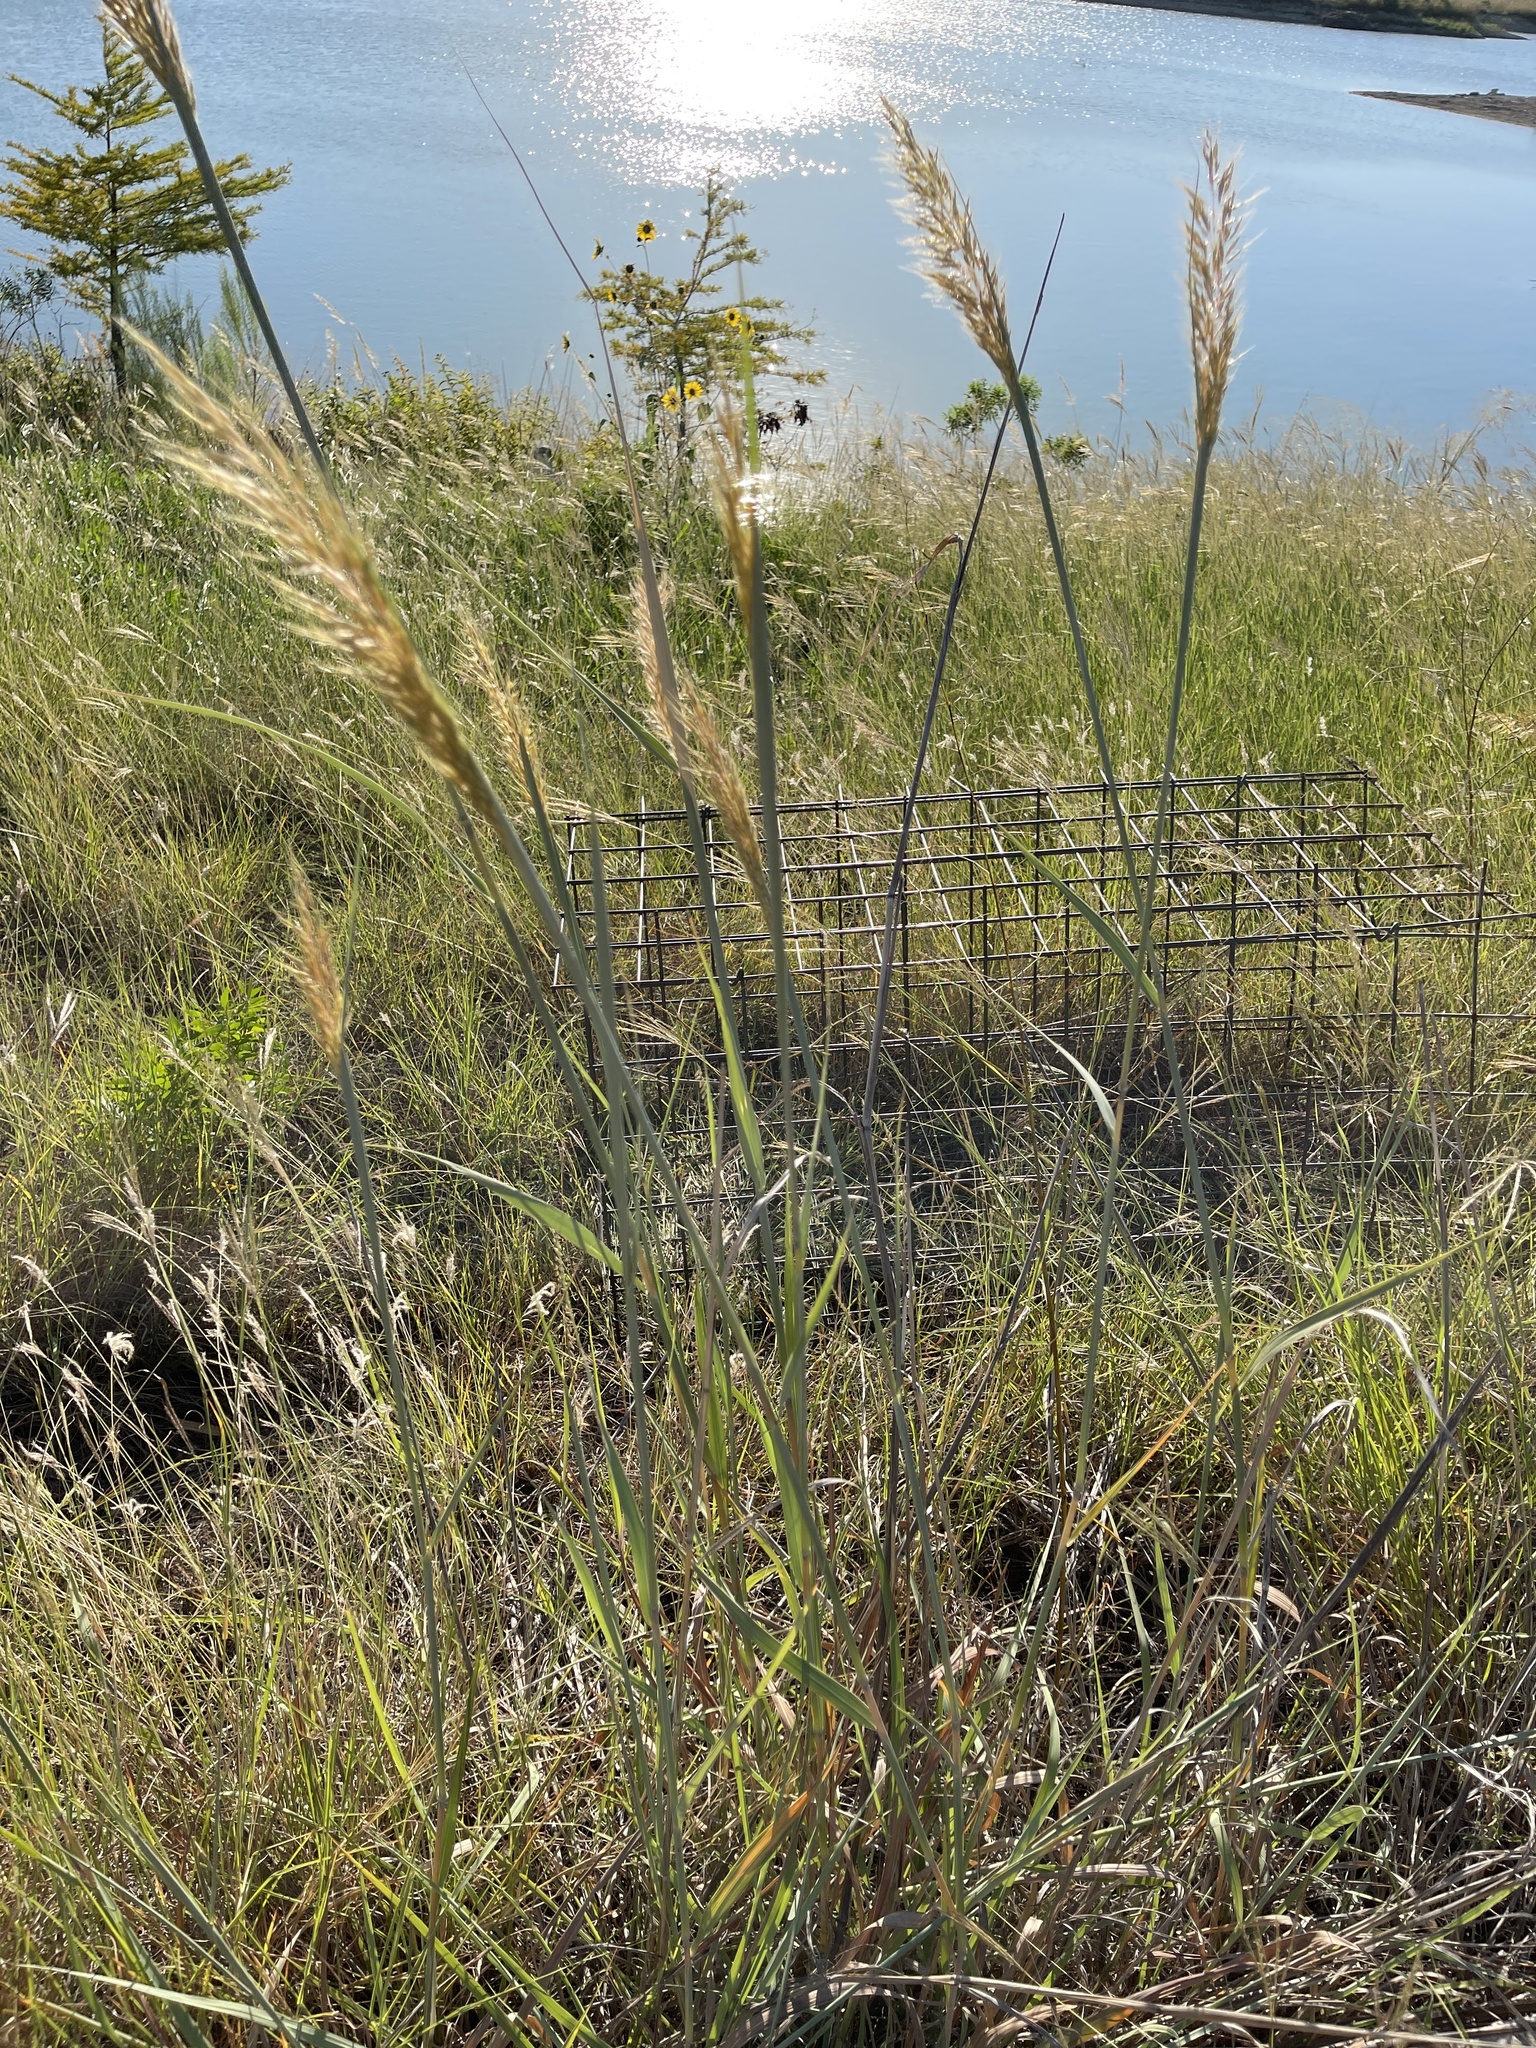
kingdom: Plantae
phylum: Tracheophyta
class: Liliopsida
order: Poales
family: Poaceae
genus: Sorghastrum
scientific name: Sorghastrum nutans
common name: Indian grass
